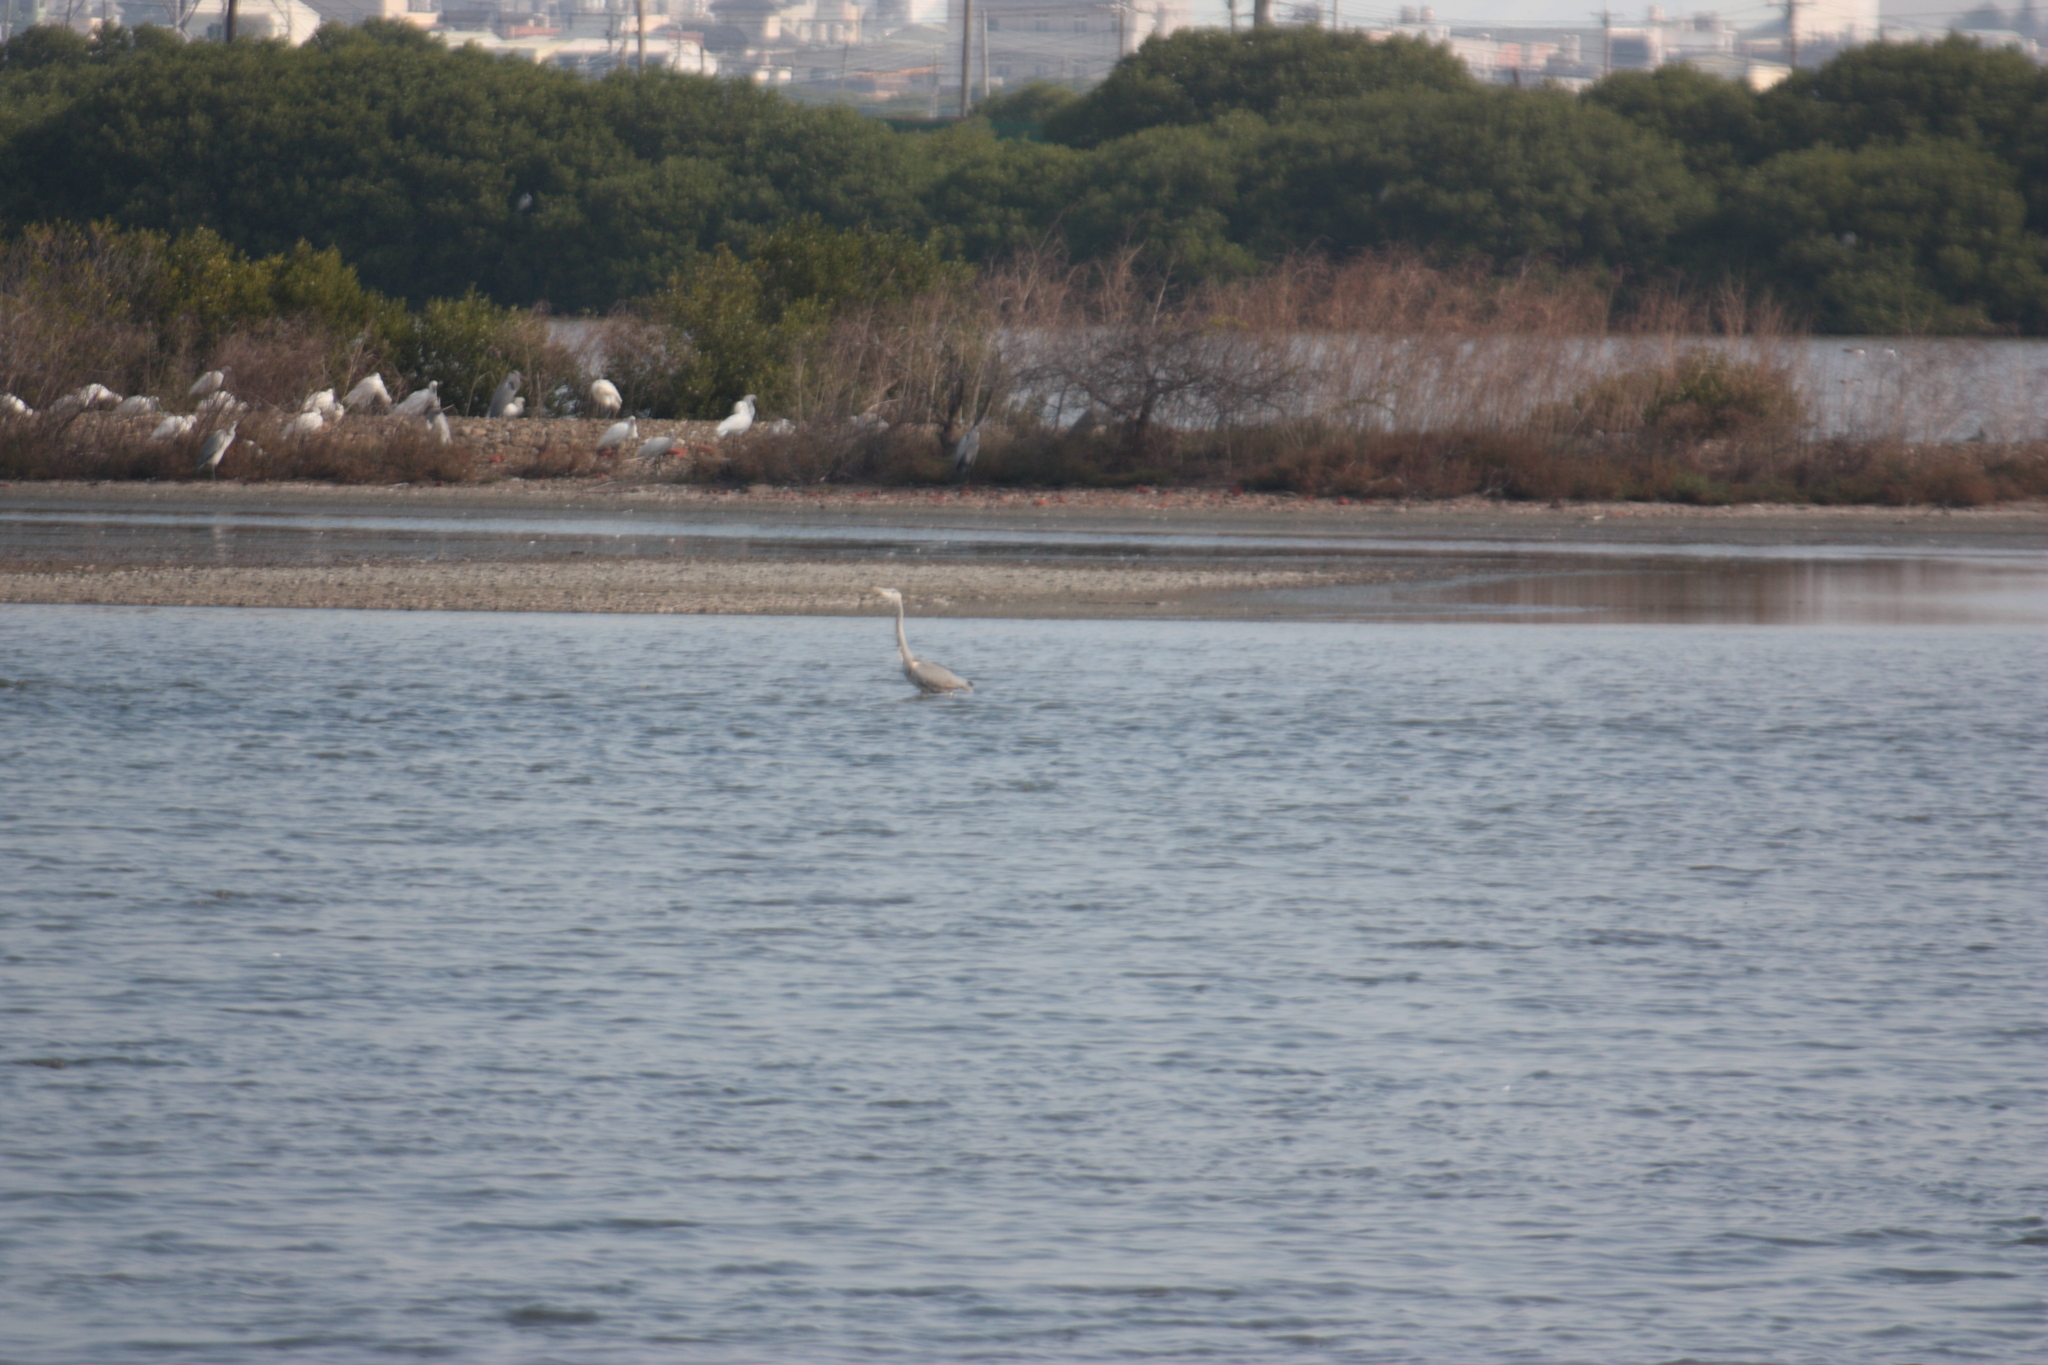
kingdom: Animalia
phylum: Chordata
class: Aves
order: Pelecaniformes
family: Ardeidae
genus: Ardea
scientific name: Ardea cinerea
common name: Grey heron
